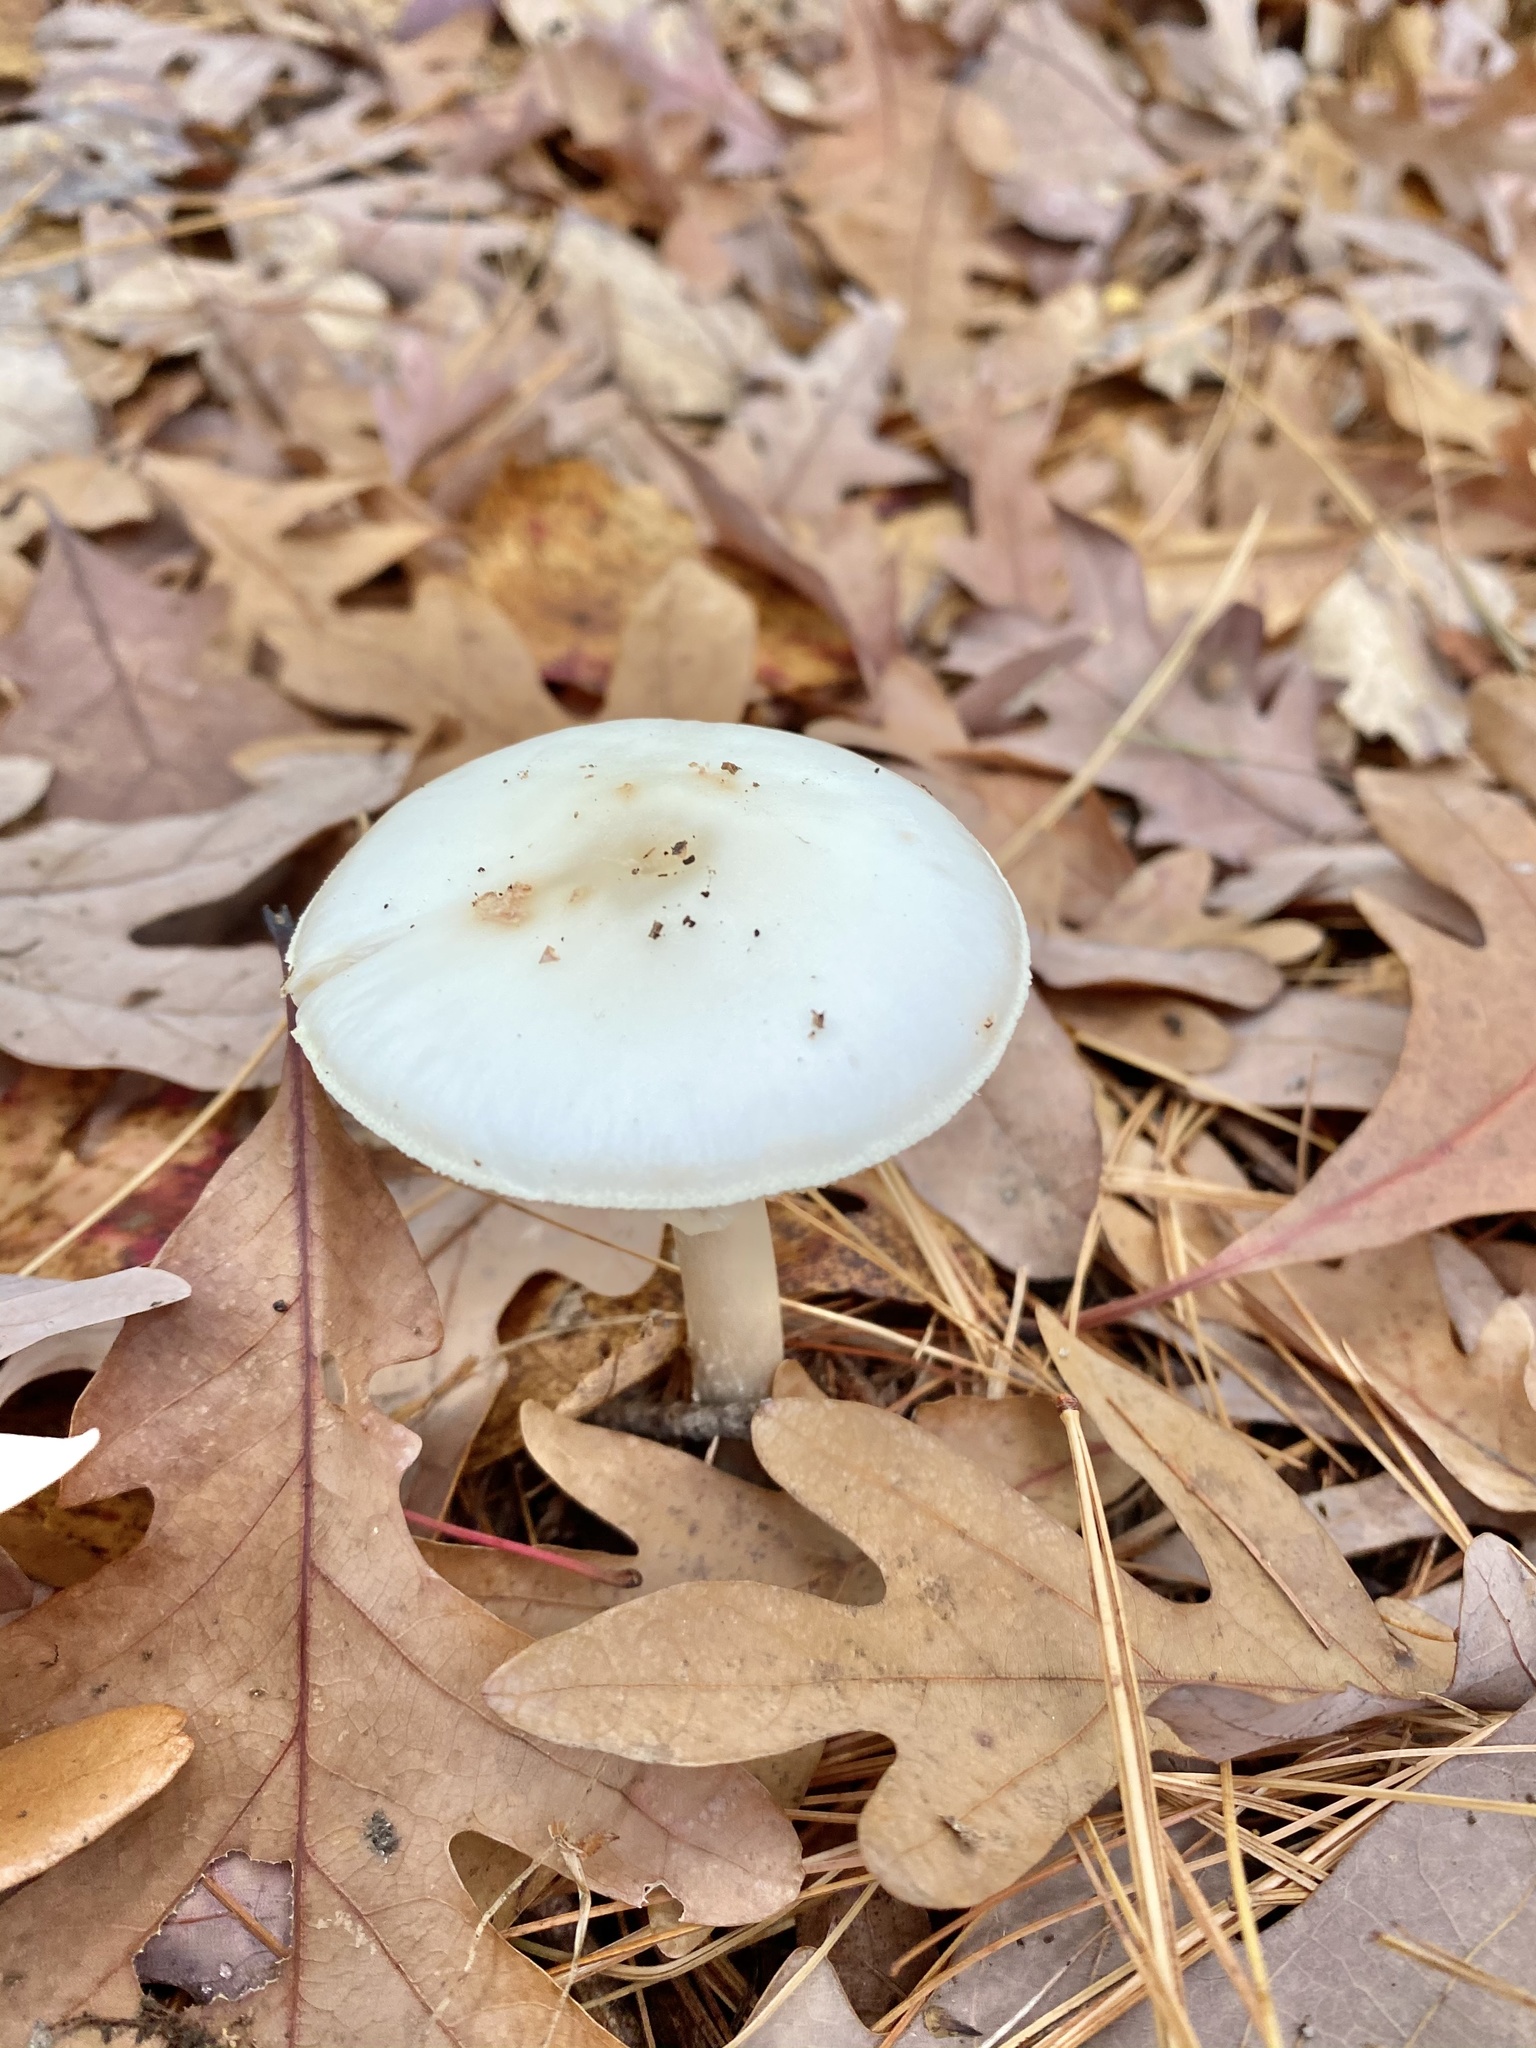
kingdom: Fungi
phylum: Basidiomycota
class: Agaricomycetes
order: Agaricales
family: Amanitaceae
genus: Amanita
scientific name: Amanita lavendula
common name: Coker's lavender staining amanita
